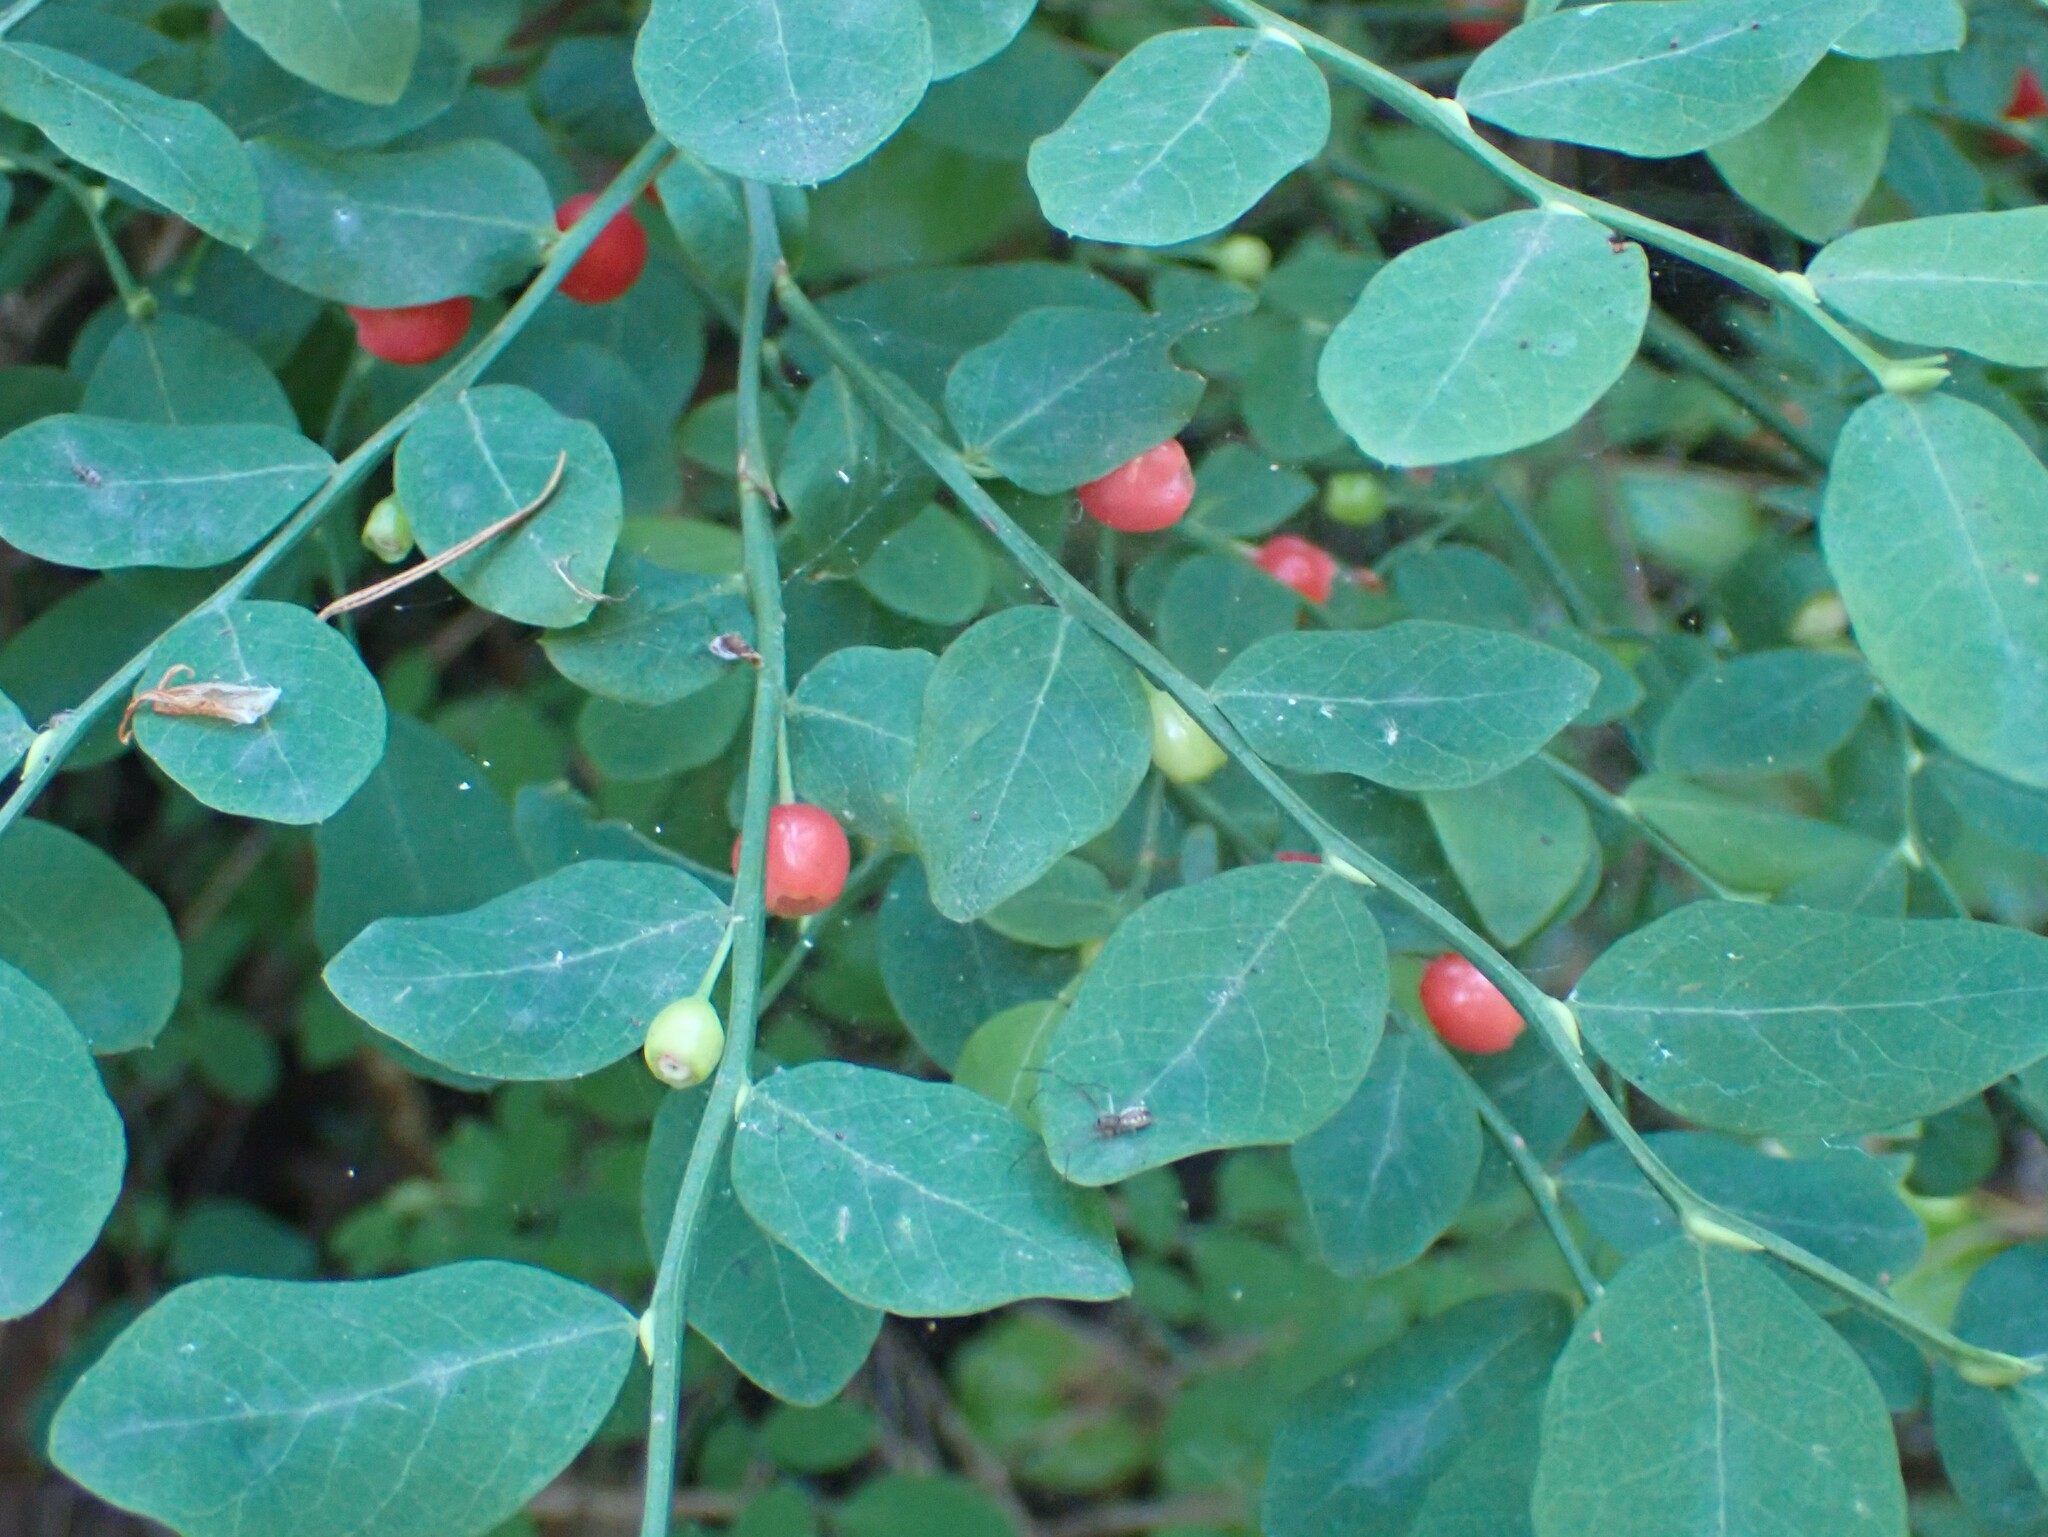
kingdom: Plantae
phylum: Tracheophyta
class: Magnoliopsida
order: Ericales
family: Ericaceae
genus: Vaccinium
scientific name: Vaccinium parvifolium
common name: Red-huckleberry
